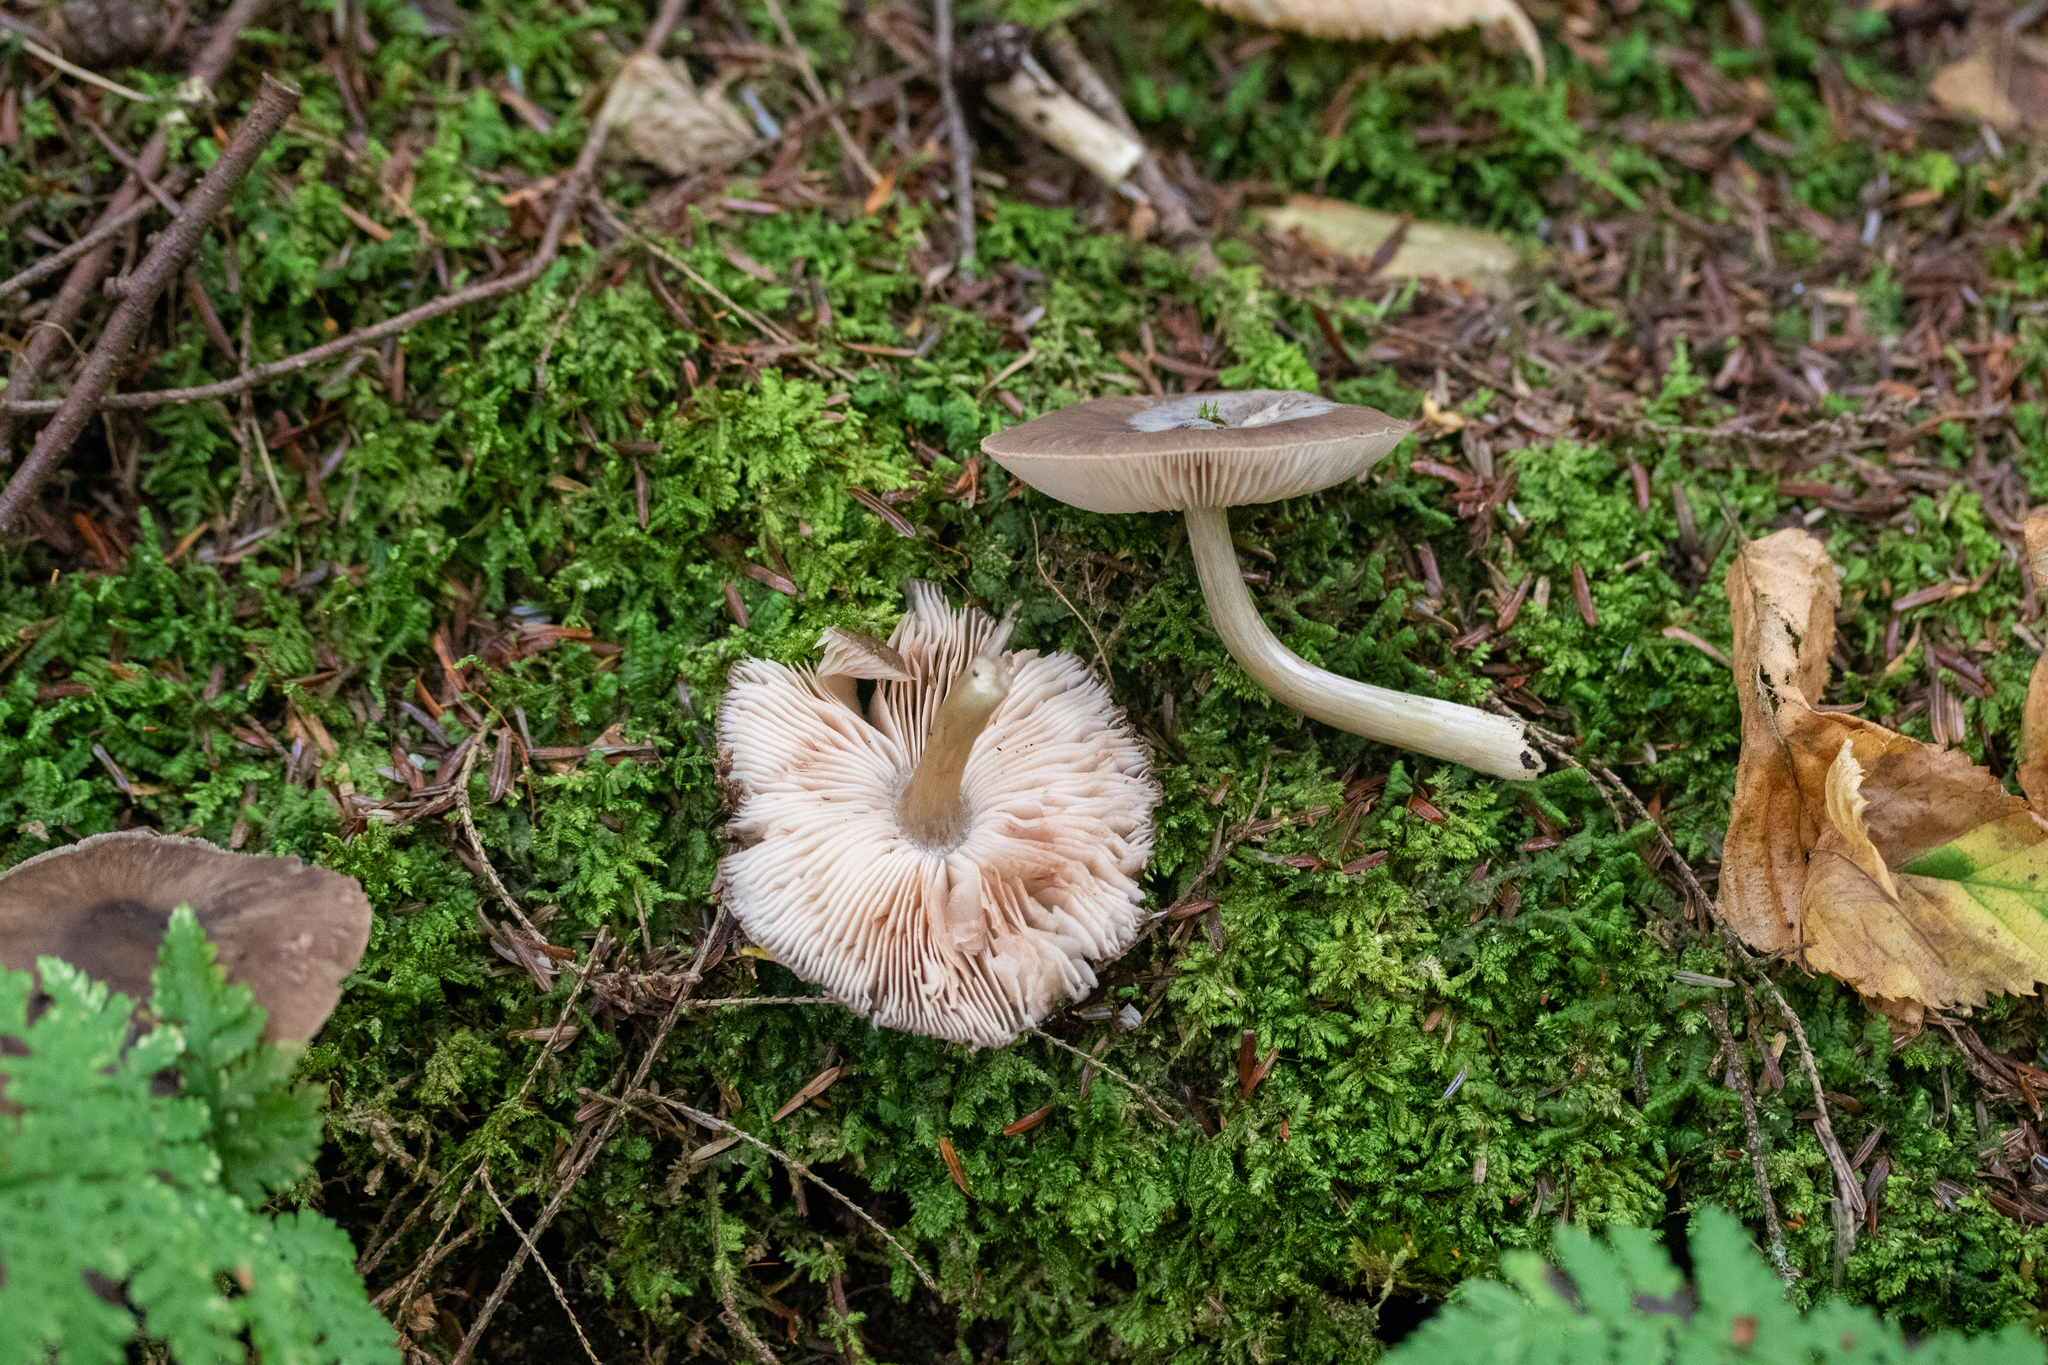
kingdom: Fungi
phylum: Basidiomycota
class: Agaricomycetes
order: Agaricales
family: Pluteaceae
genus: Pluteus
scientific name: Pluteus cervinus
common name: Deer shield
